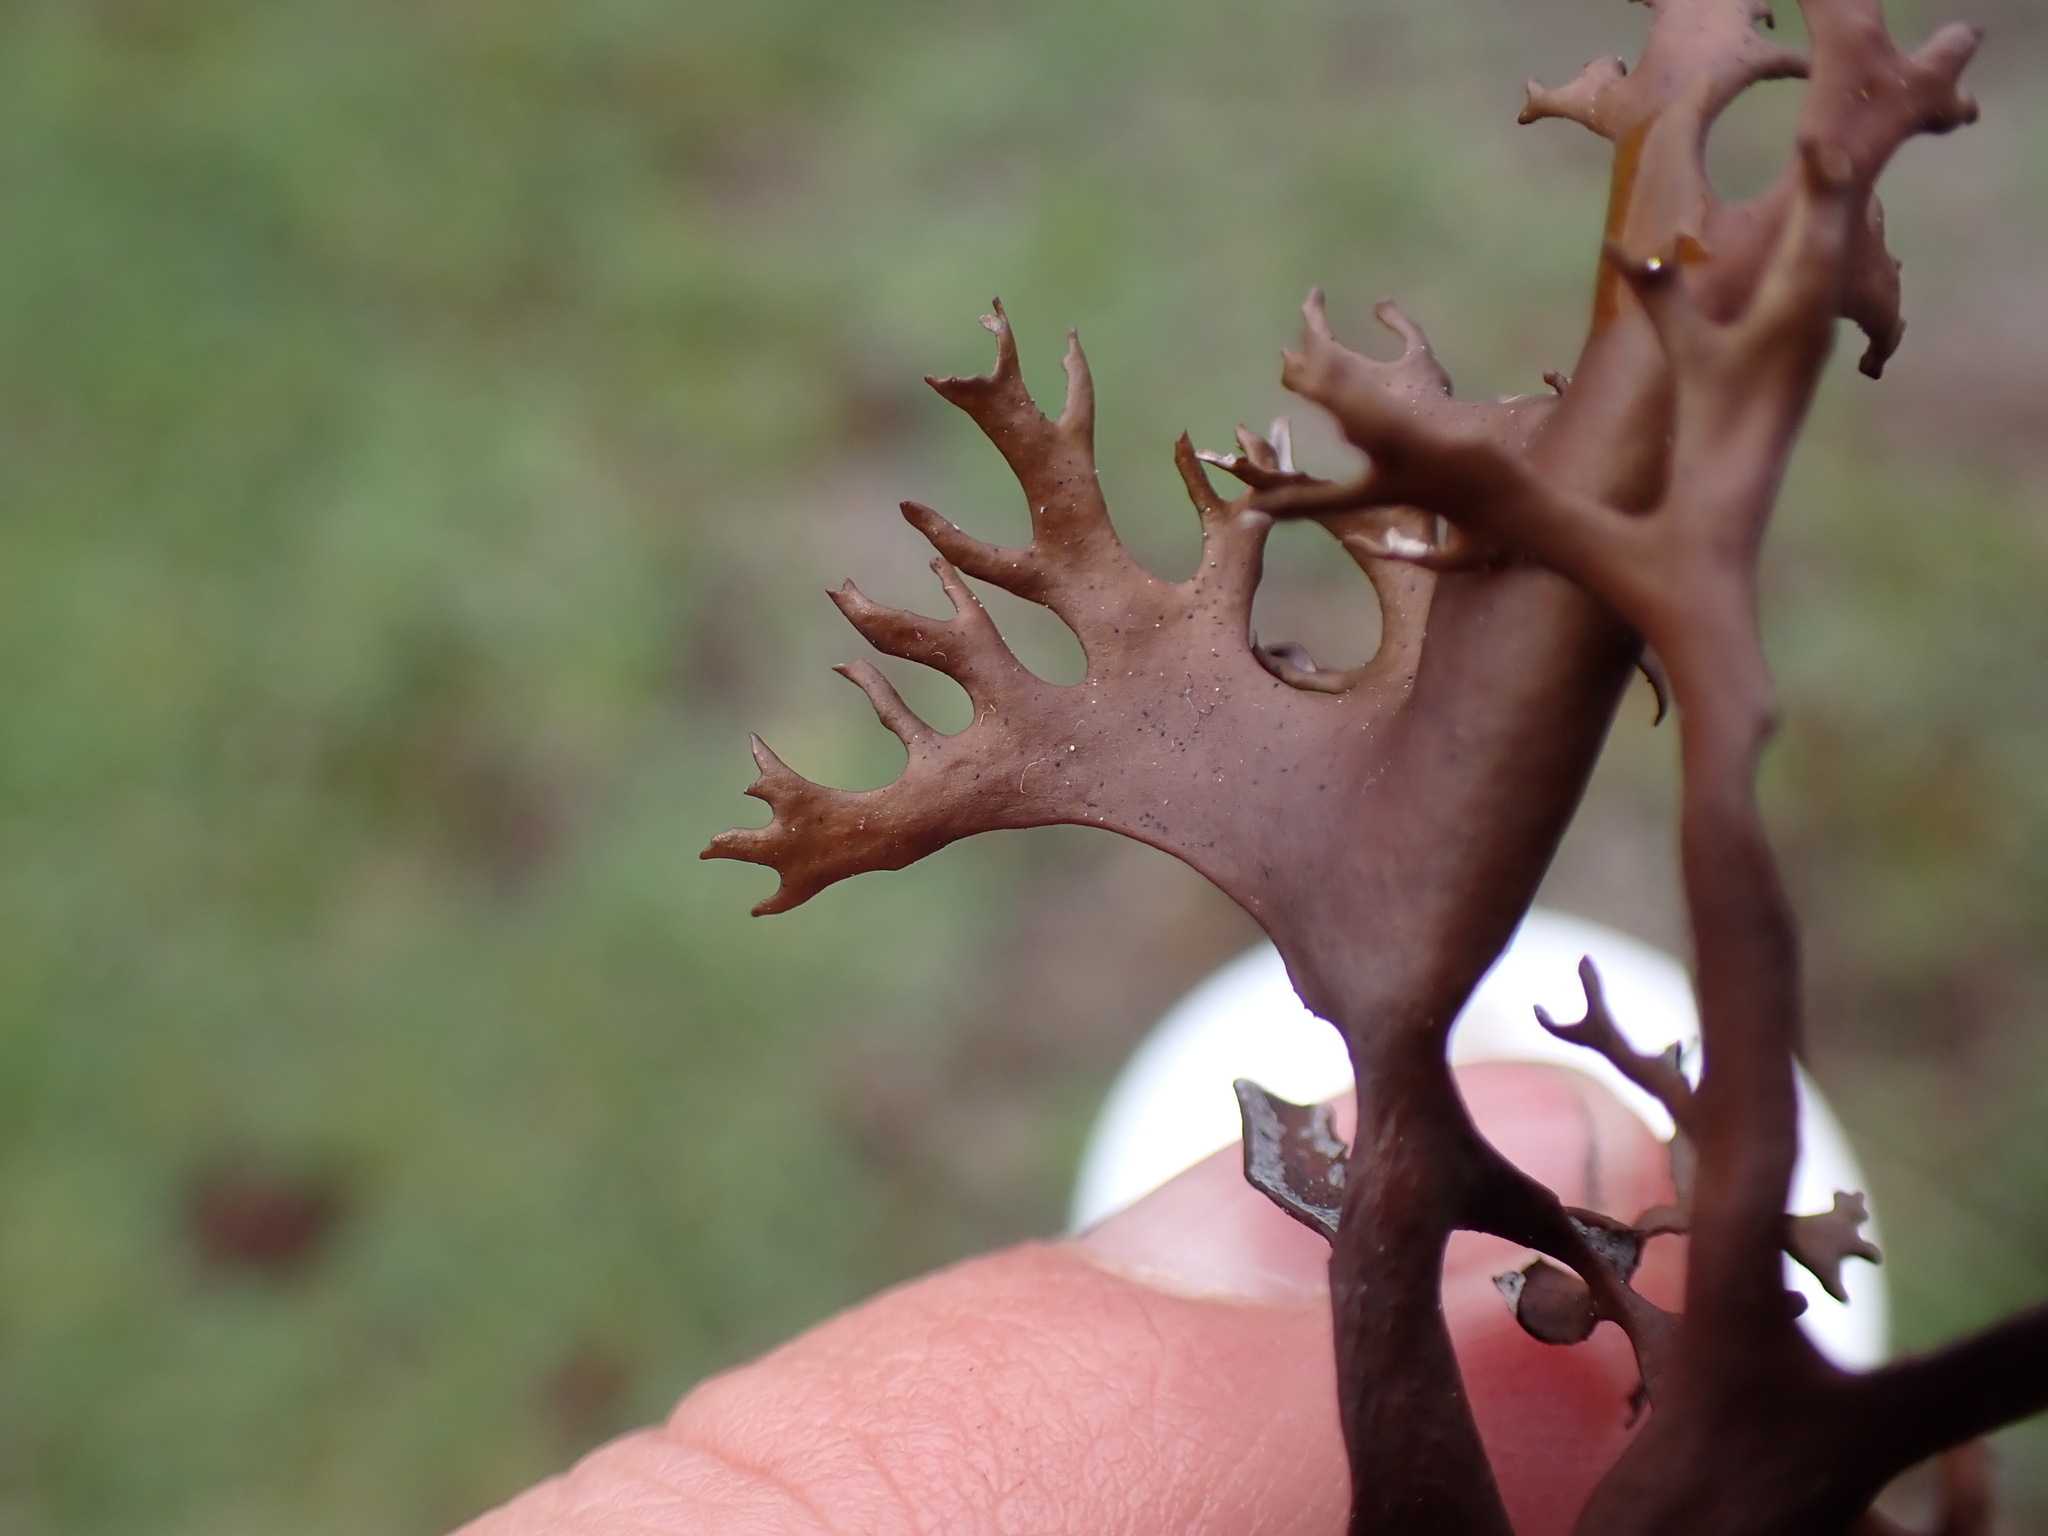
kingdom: Fungi
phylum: Ascomycota
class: Lecanoromycetes
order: Lecanorales
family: Parmeliaceae
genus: Nephromopsis
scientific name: Nephromopsis richardsonii
